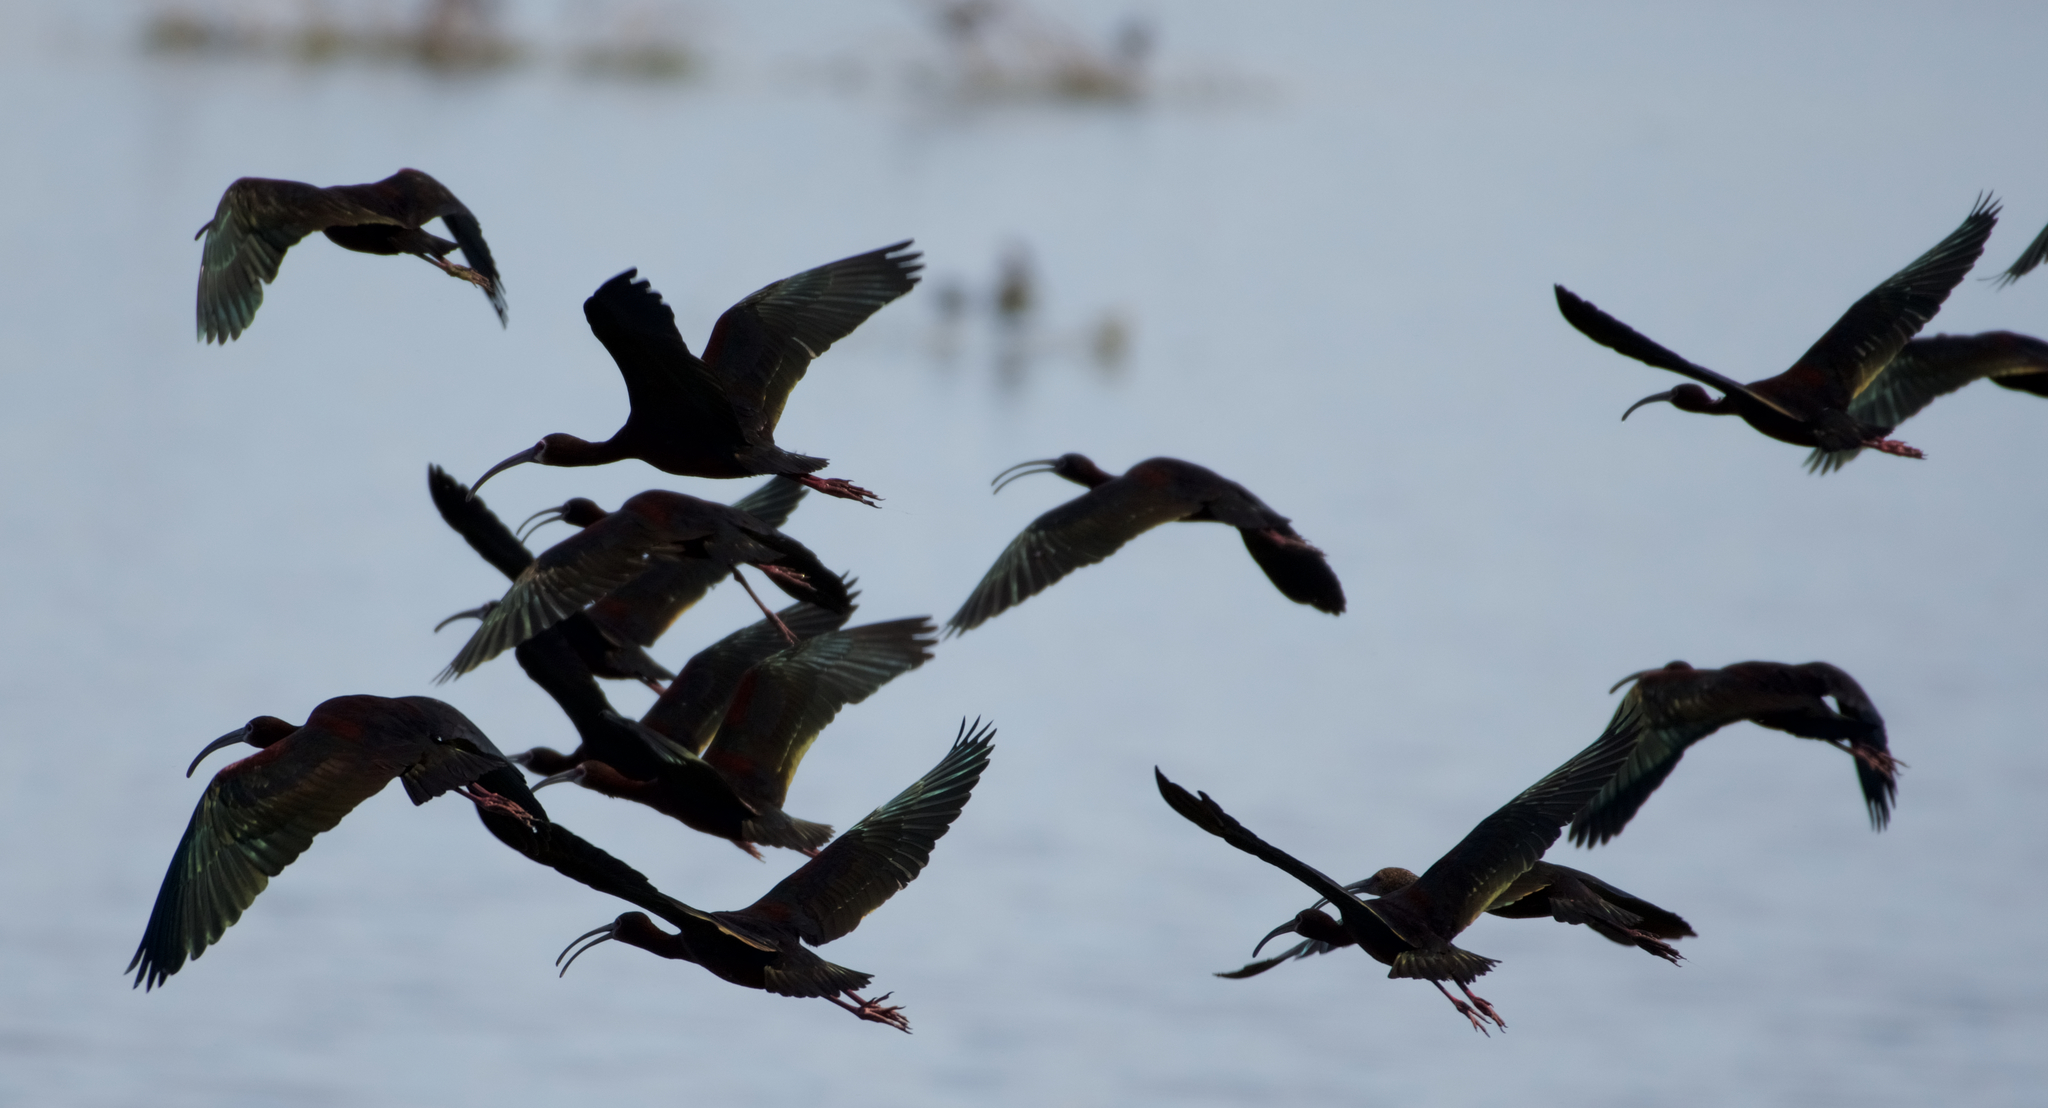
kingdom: Animalia
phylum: Chordata
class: Aves
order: Pelecaniformes
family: Threskiornithidae
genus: Plegadis
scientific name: Plegadis chihi
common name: White-faced ibis
